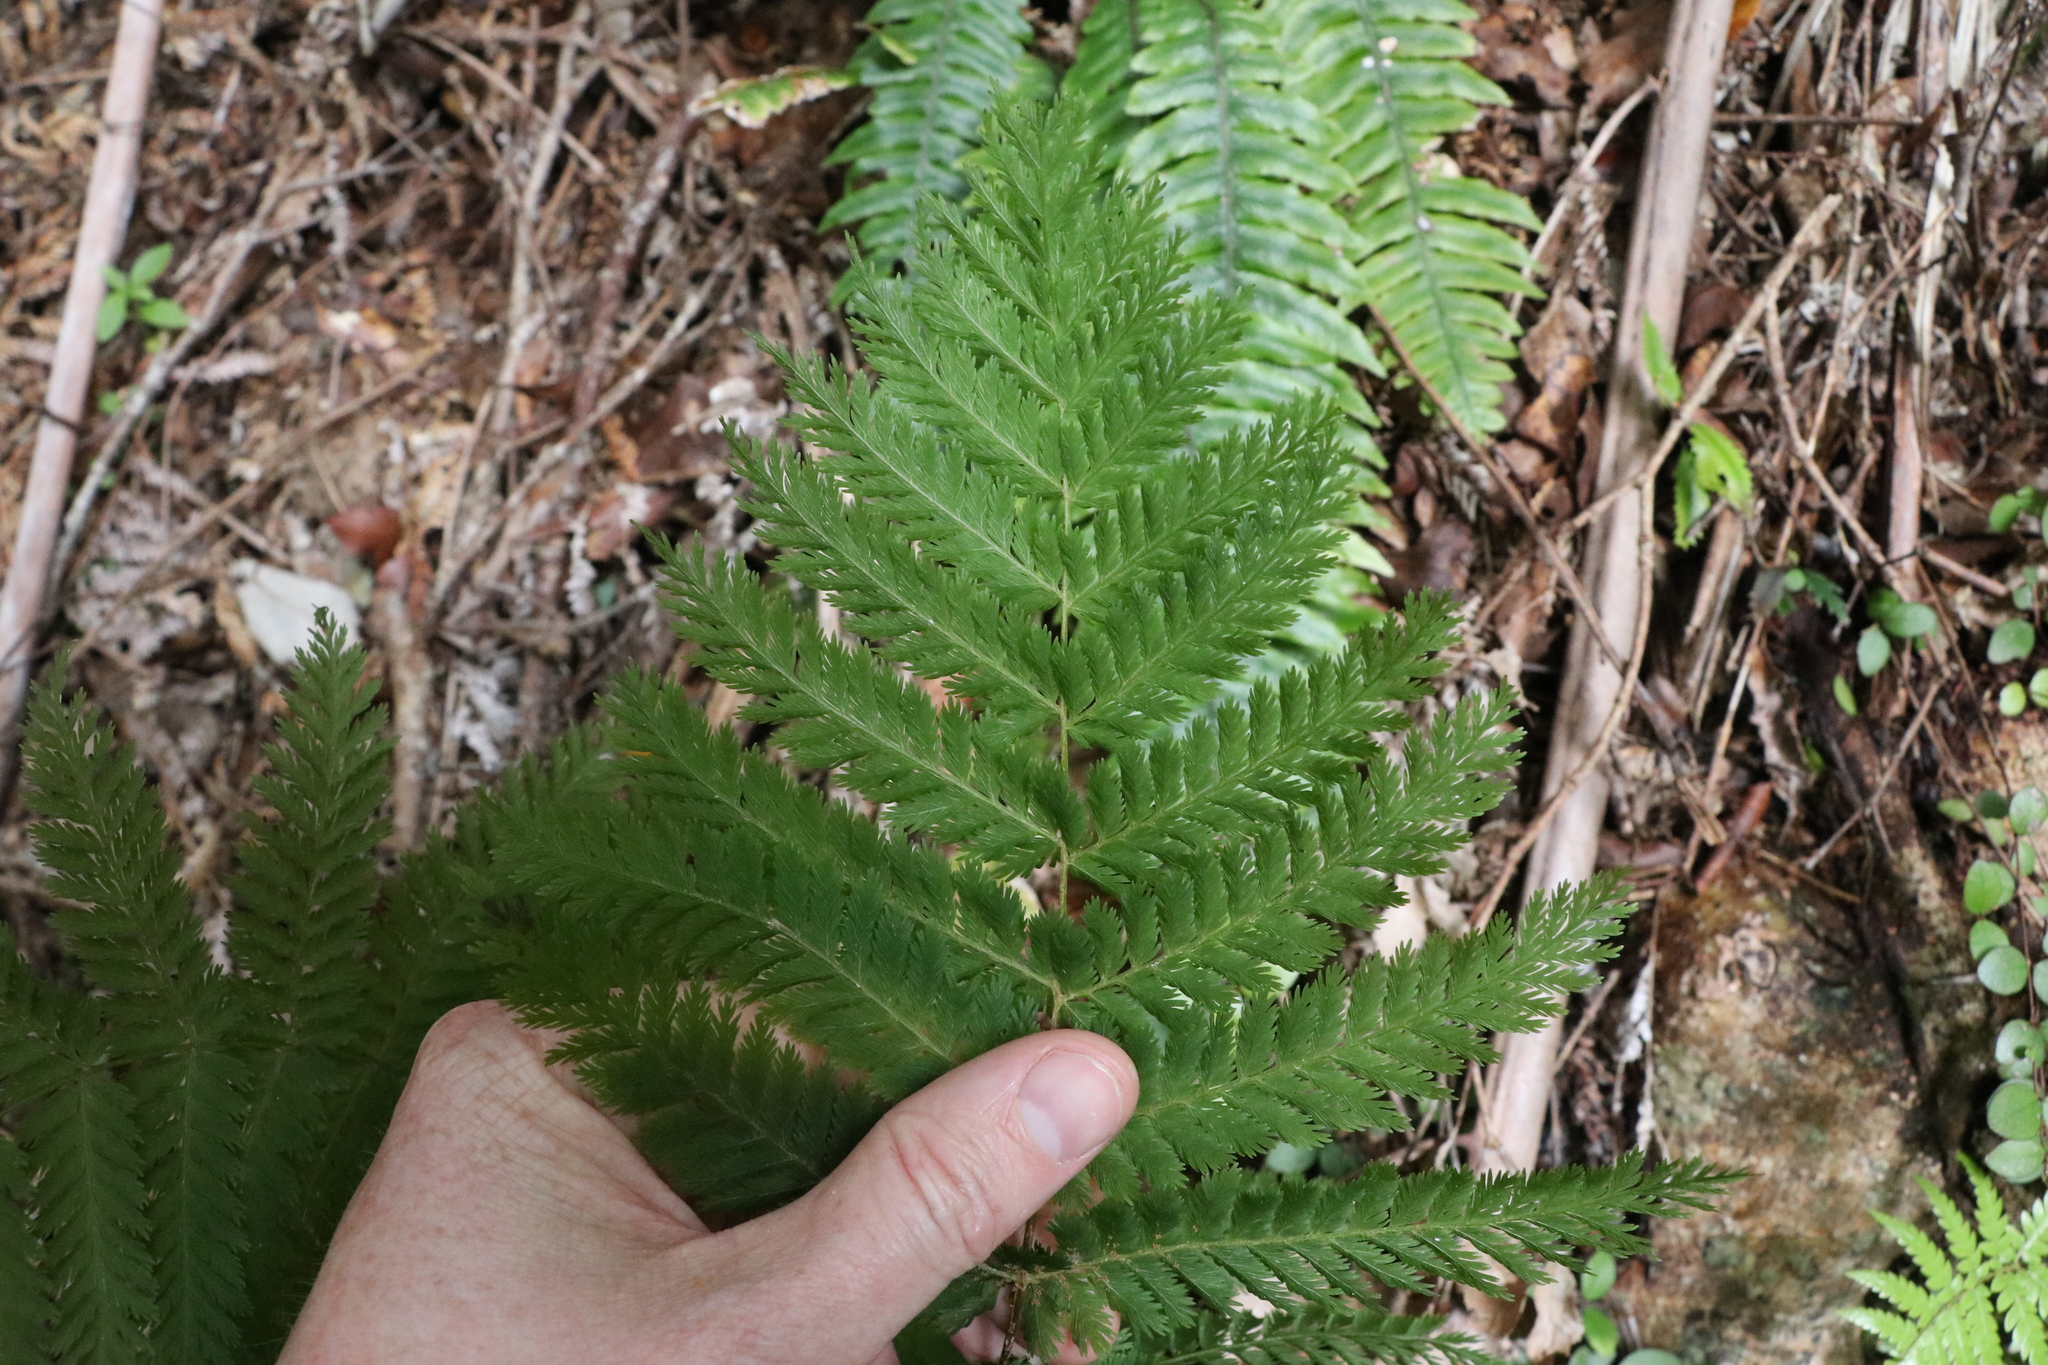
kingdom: Plantae
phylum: Tracheophyta
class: Polypodiopsida
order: Osmundales
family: Osmundaceae
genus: Leptopteris
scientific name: Leptopteris hymenophylloides
